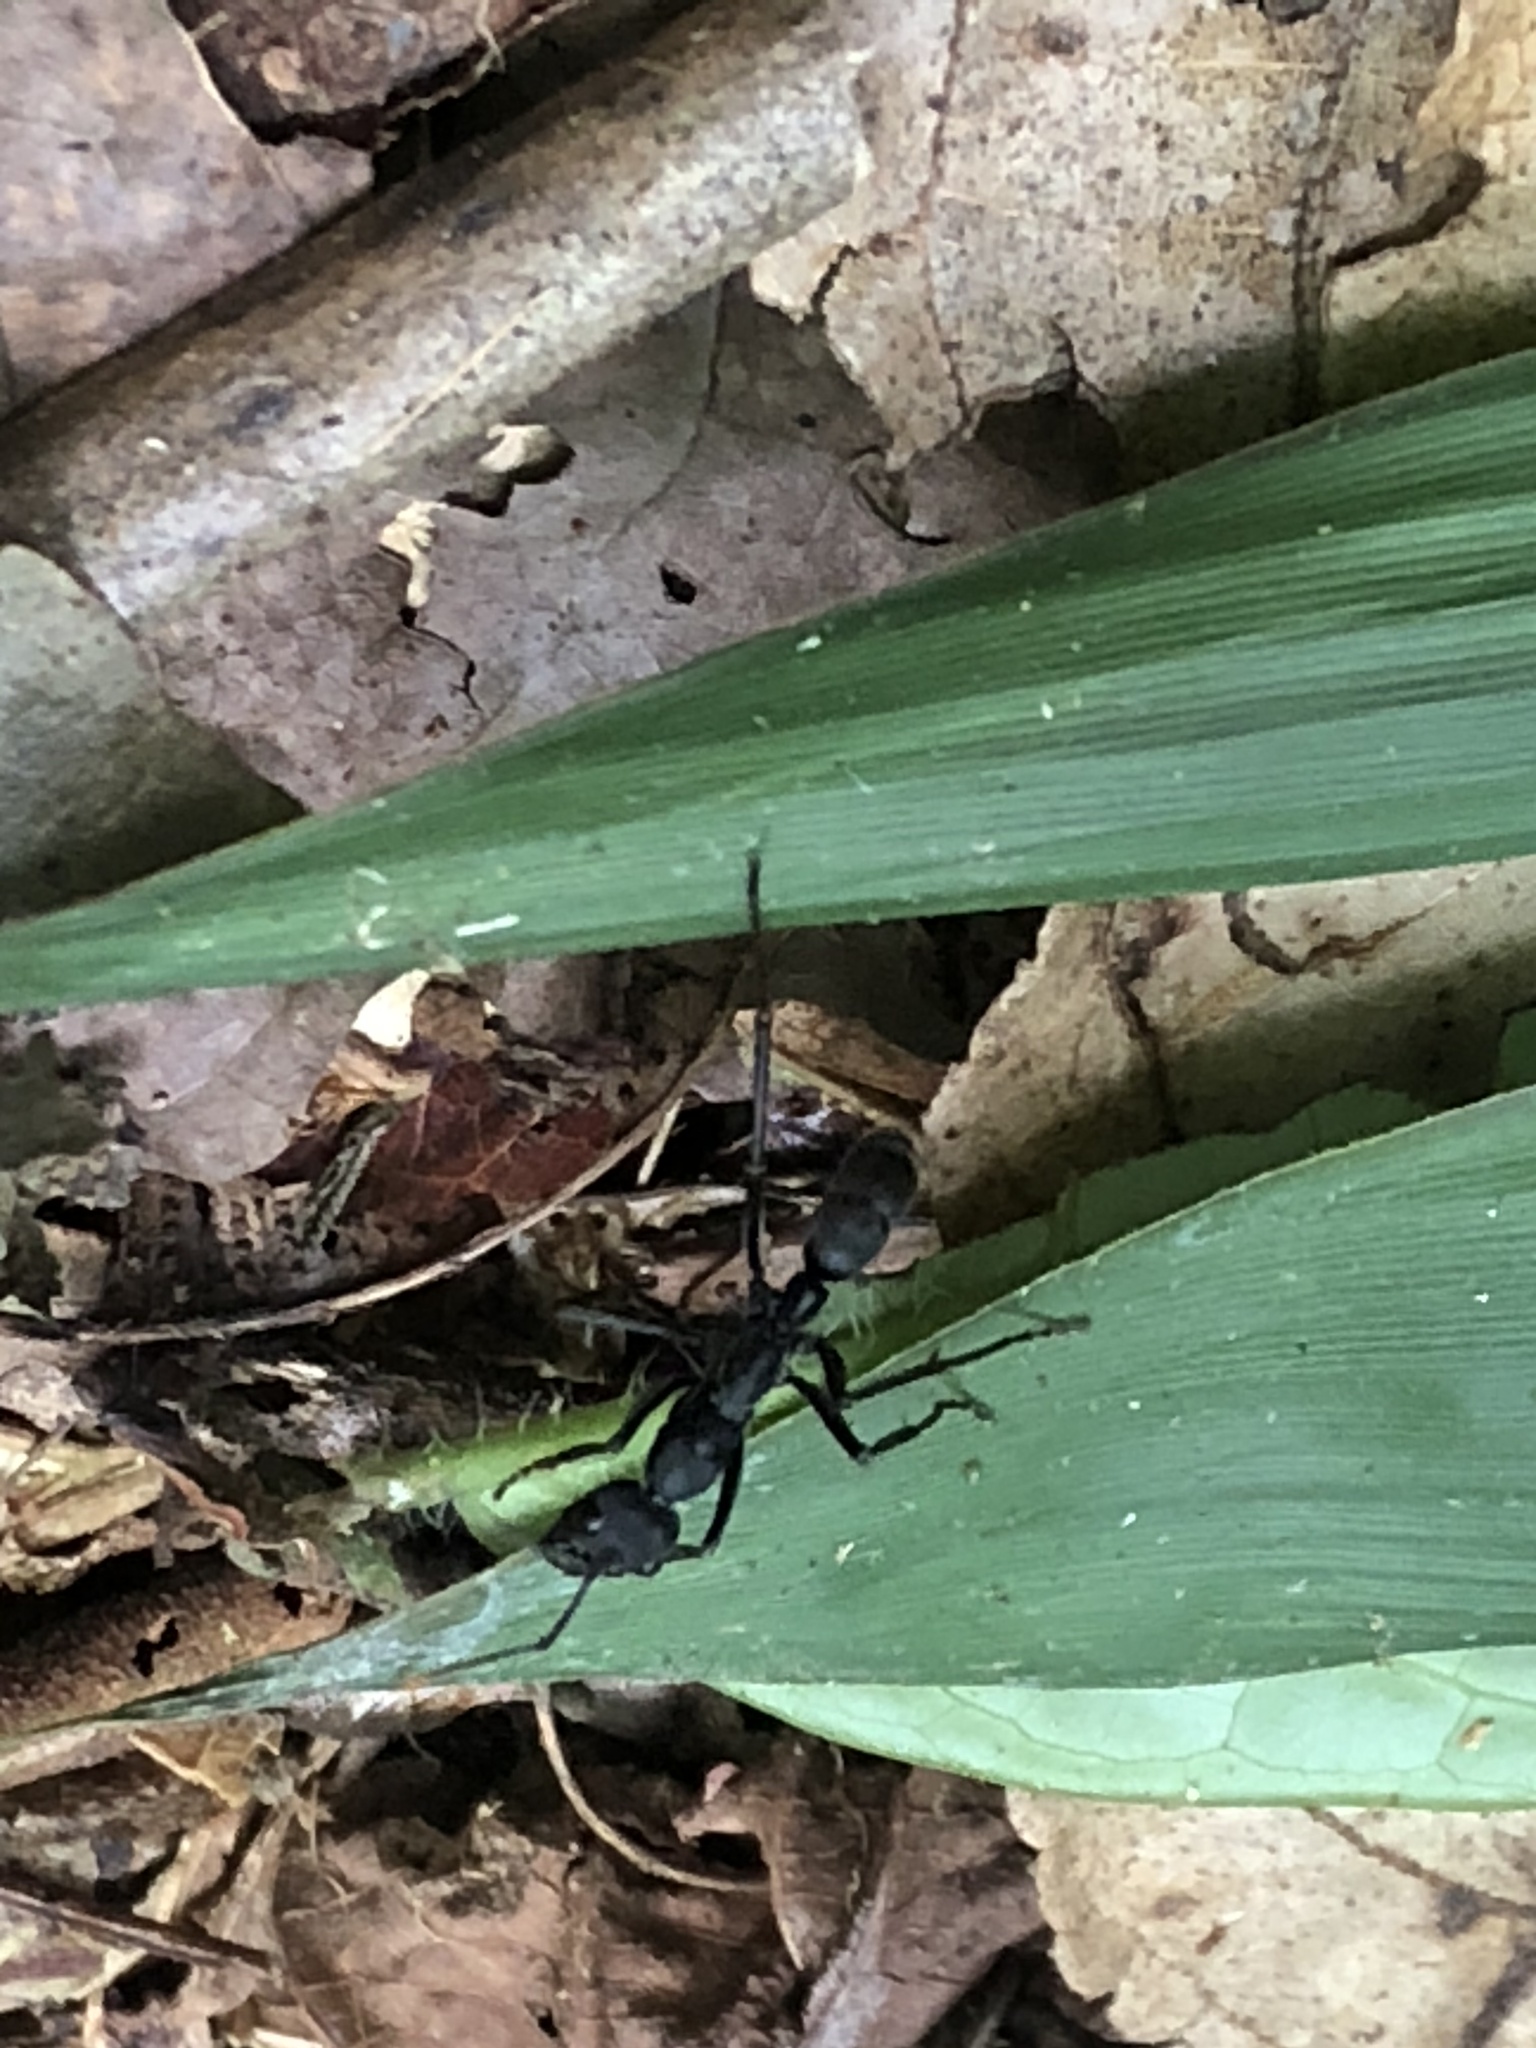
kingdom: Animalia
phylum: Arthropoda
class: Insecta
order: Hymenoptera
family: Formicidae
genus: Pachycondyla
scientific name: Pachycondyla apicalis
